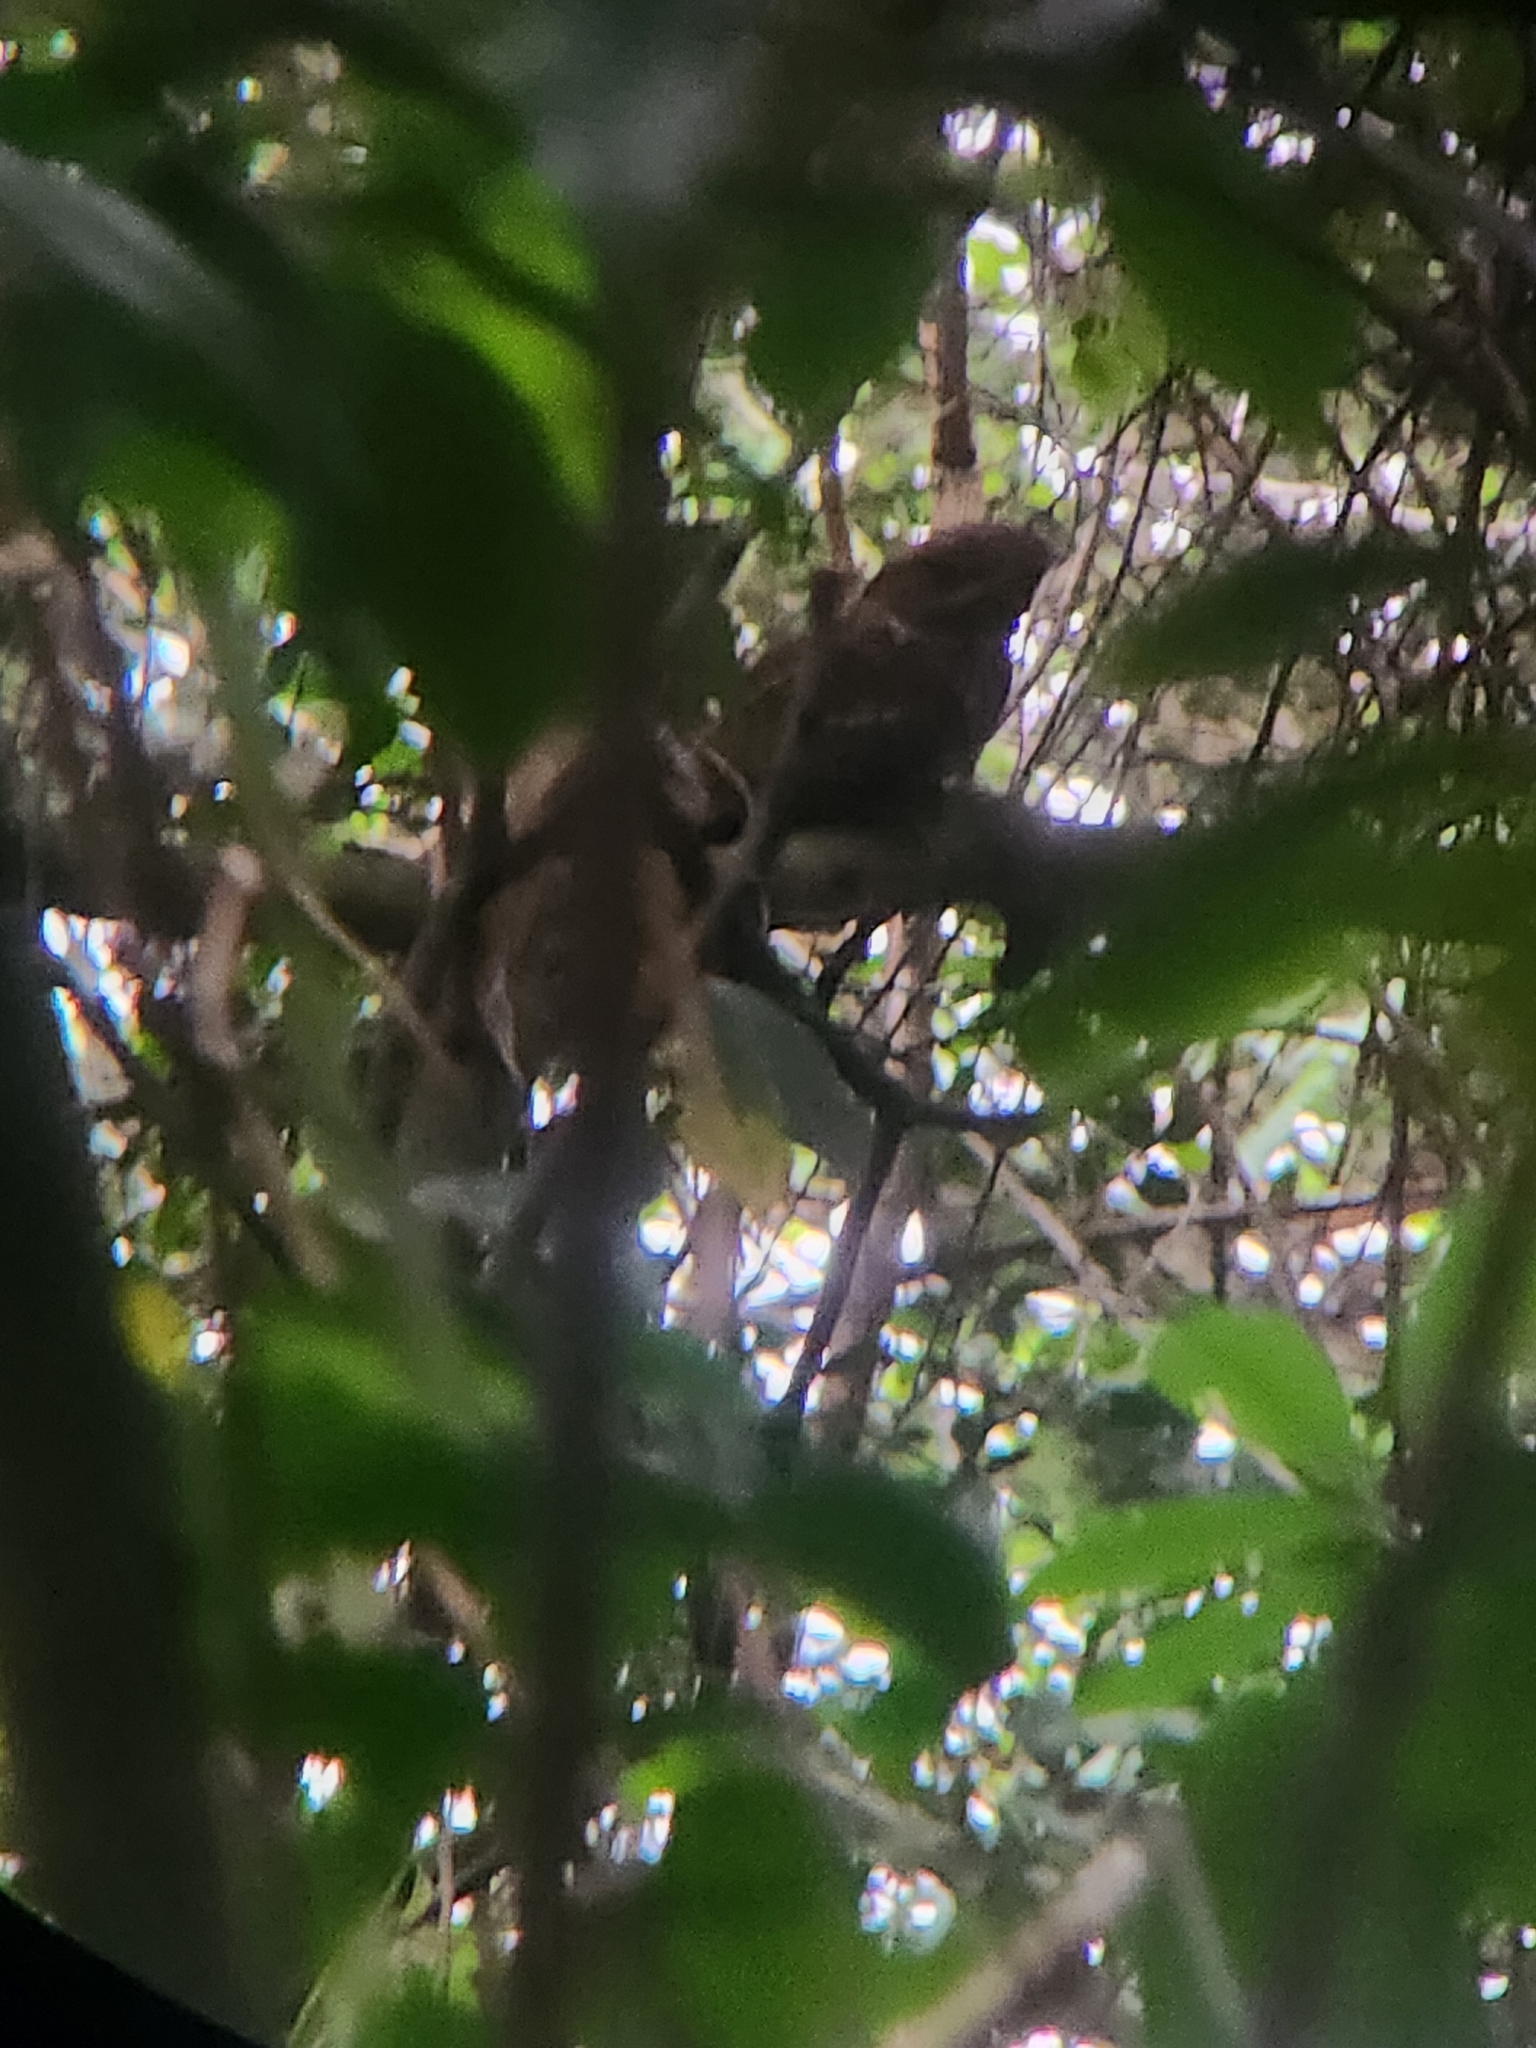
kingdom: Animalia
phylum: Chordata
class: Aves
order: Caprimulgiformes
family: Caprimulgidae
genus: Antrostomus
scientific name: Antrostomus carolinensis
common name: Chuck-will's-widow
